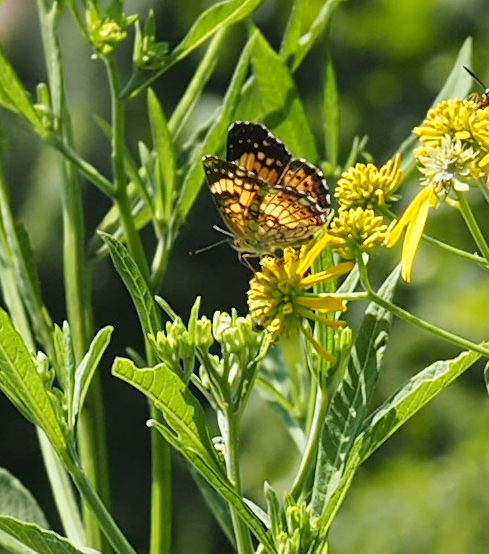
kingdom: Animalia
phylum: Arthropoda
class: Insecta
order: Lepidoptera
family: Nymphalidae
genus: Chlosyne
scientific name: Chlosyne nycteis
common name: Silvery checkerspot
